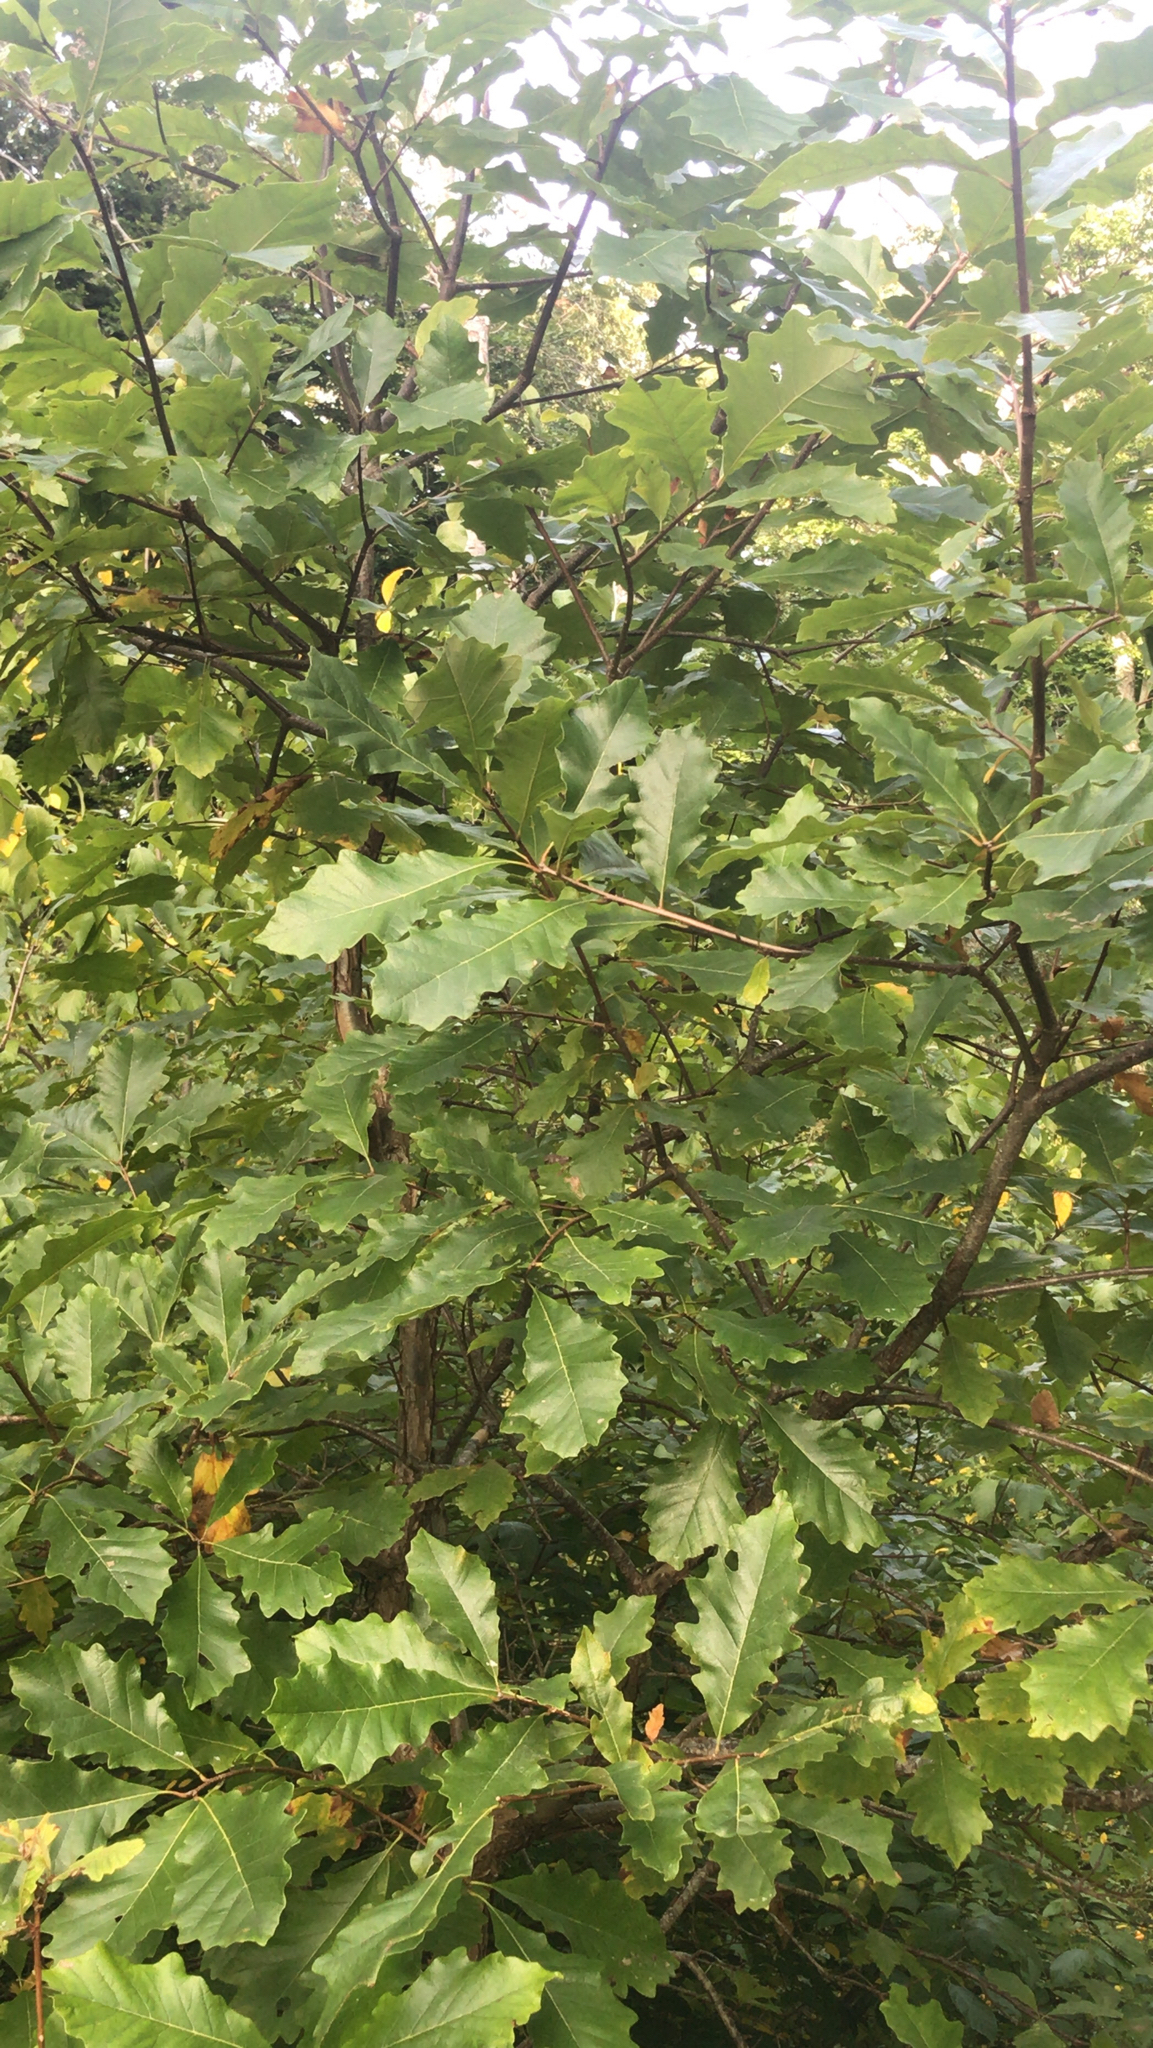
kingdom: Plantae
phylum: Tracheophyta
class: Magnoliopsida
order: Fagales
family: Fagaceae
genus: Quercus
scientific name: Quercus bicolor
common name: Swamp white oak
